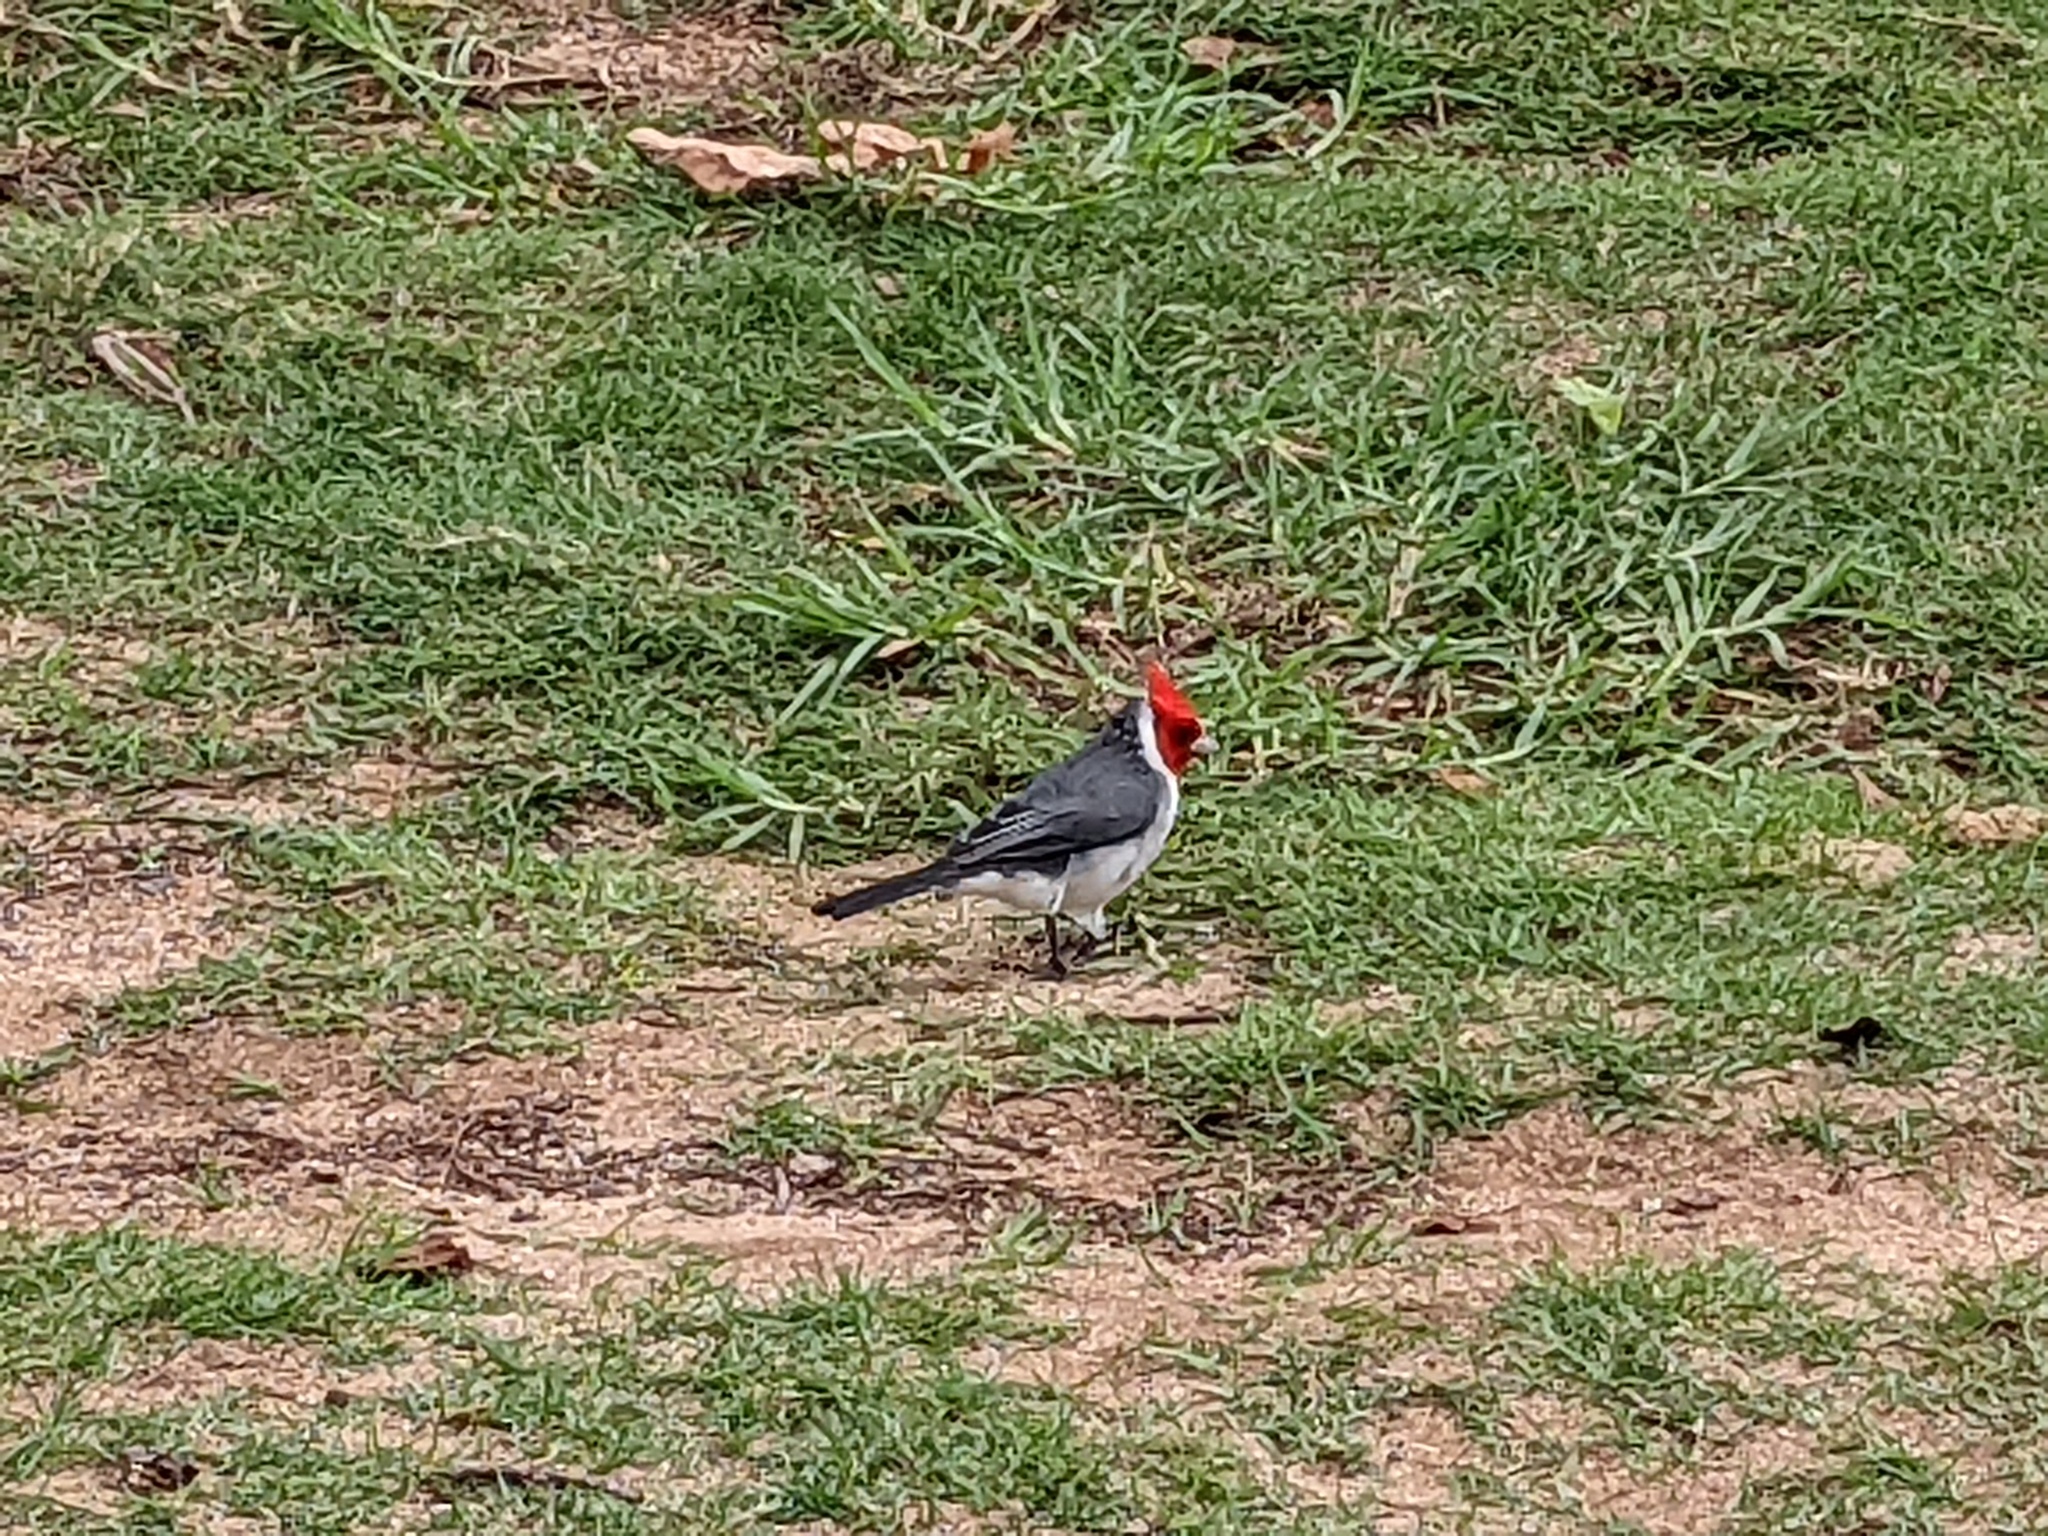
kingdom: Animalia
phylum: Chordata
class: Aves
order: Passeriformes
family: Thraupidae
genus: Paroaria
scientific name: Paroaria coronata
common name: Red-crested cardinal
